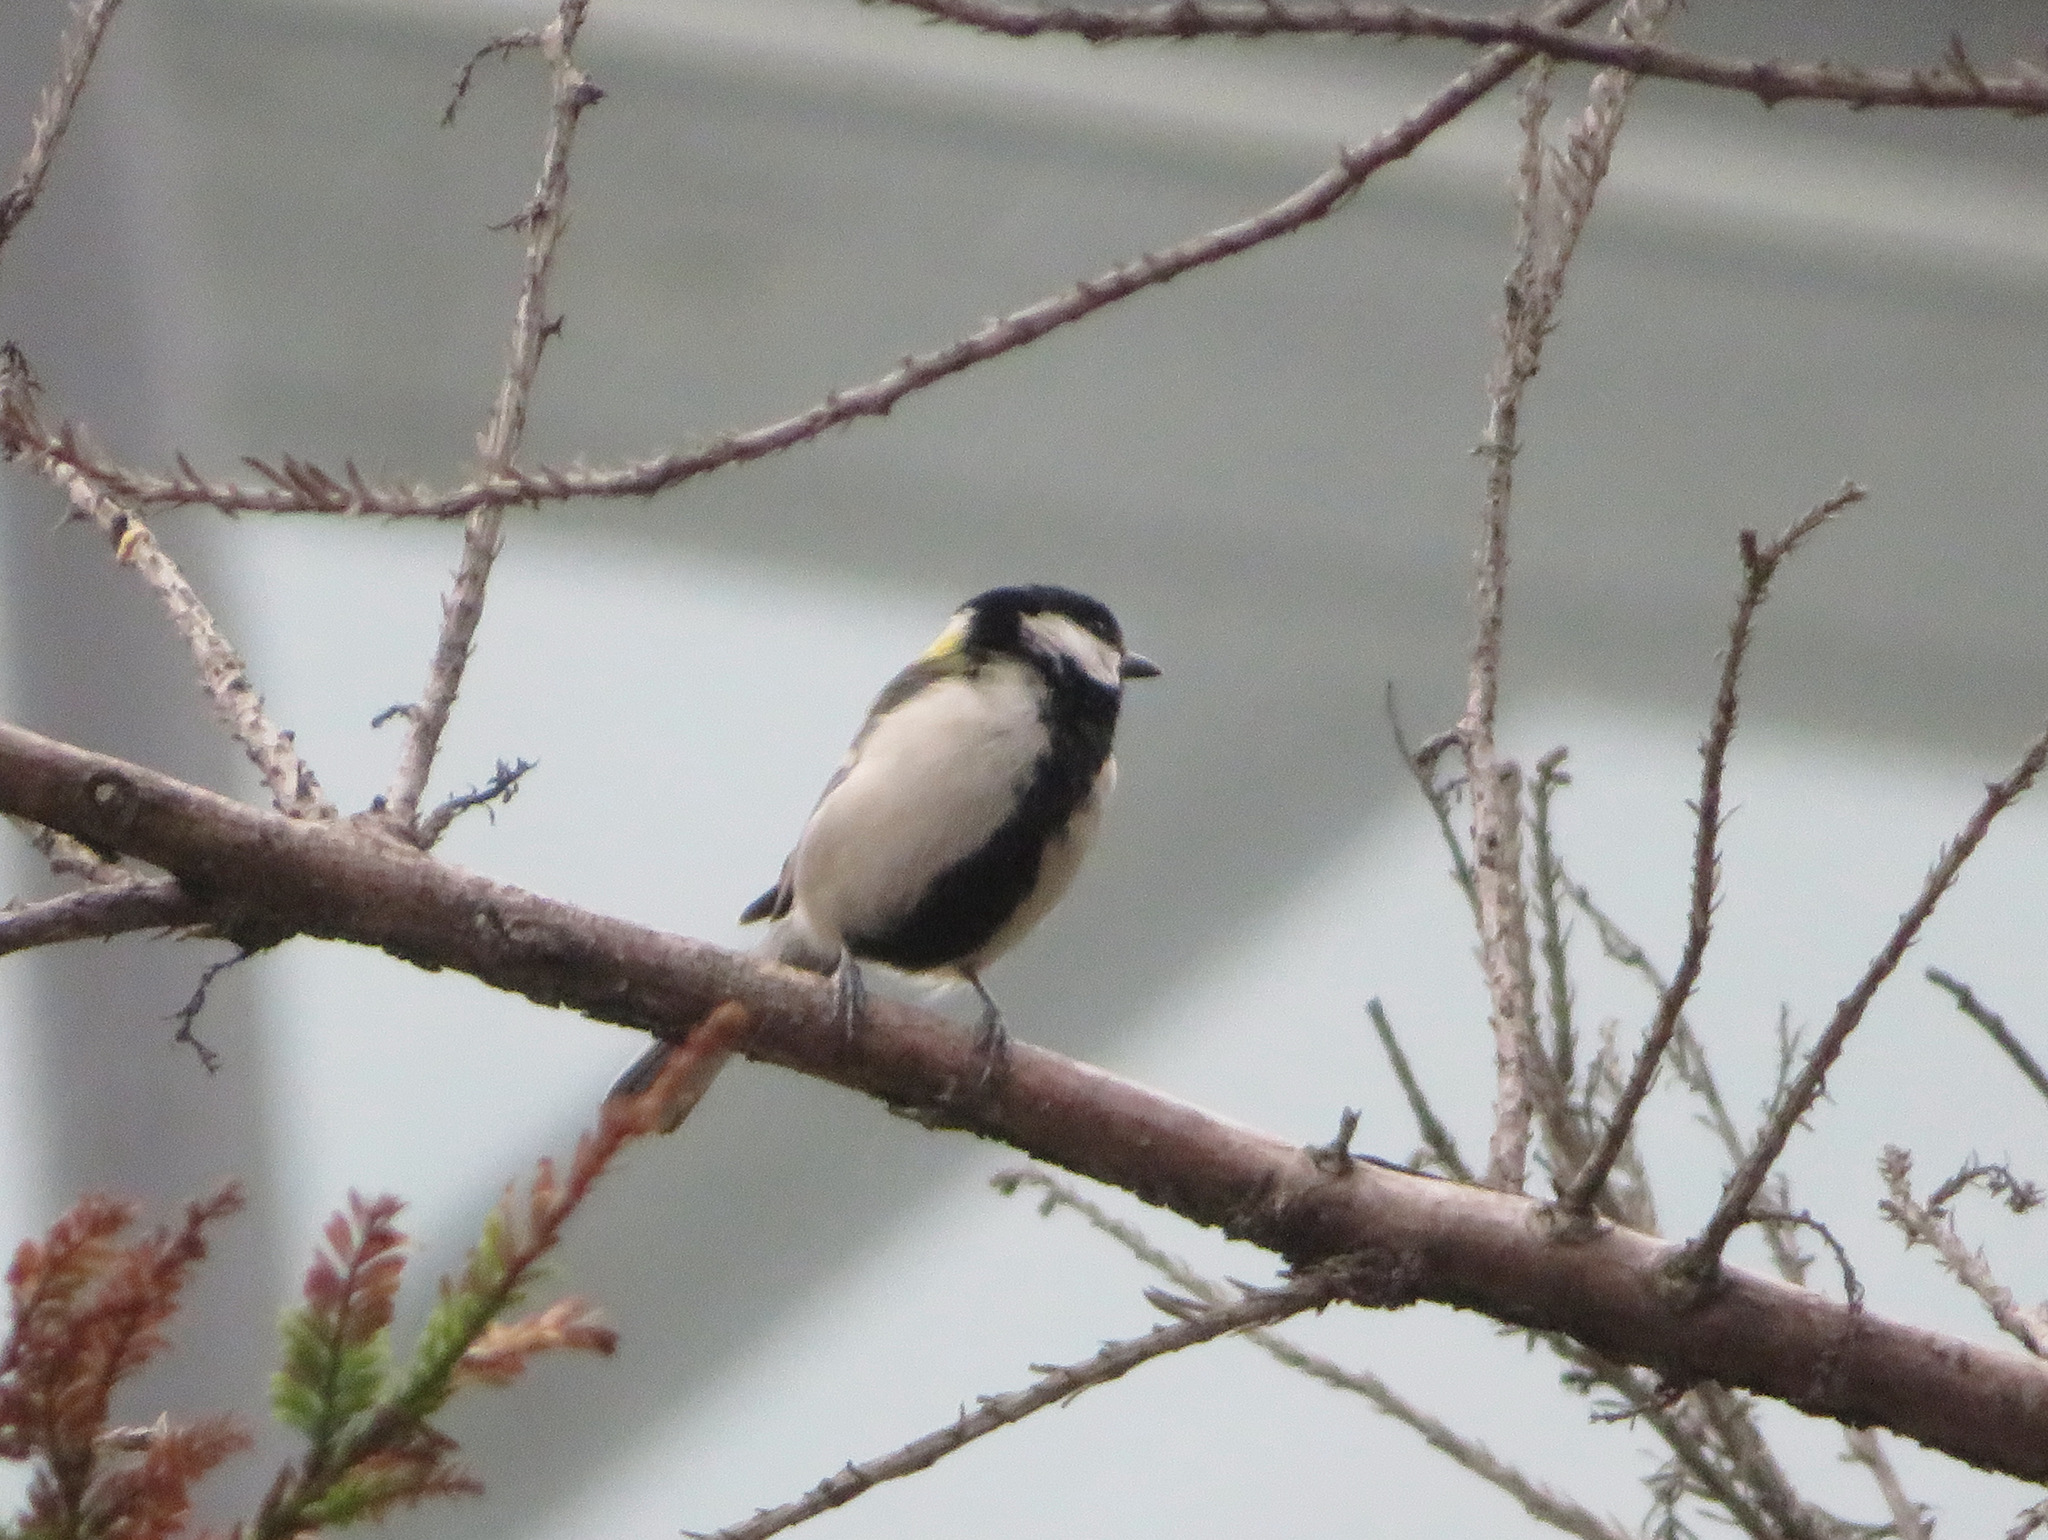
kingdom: Animalia
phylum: Chordata
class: Aves
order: Passeriformes
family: Paridae
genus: Parus
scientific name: Parus minor
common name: Japanese tit
